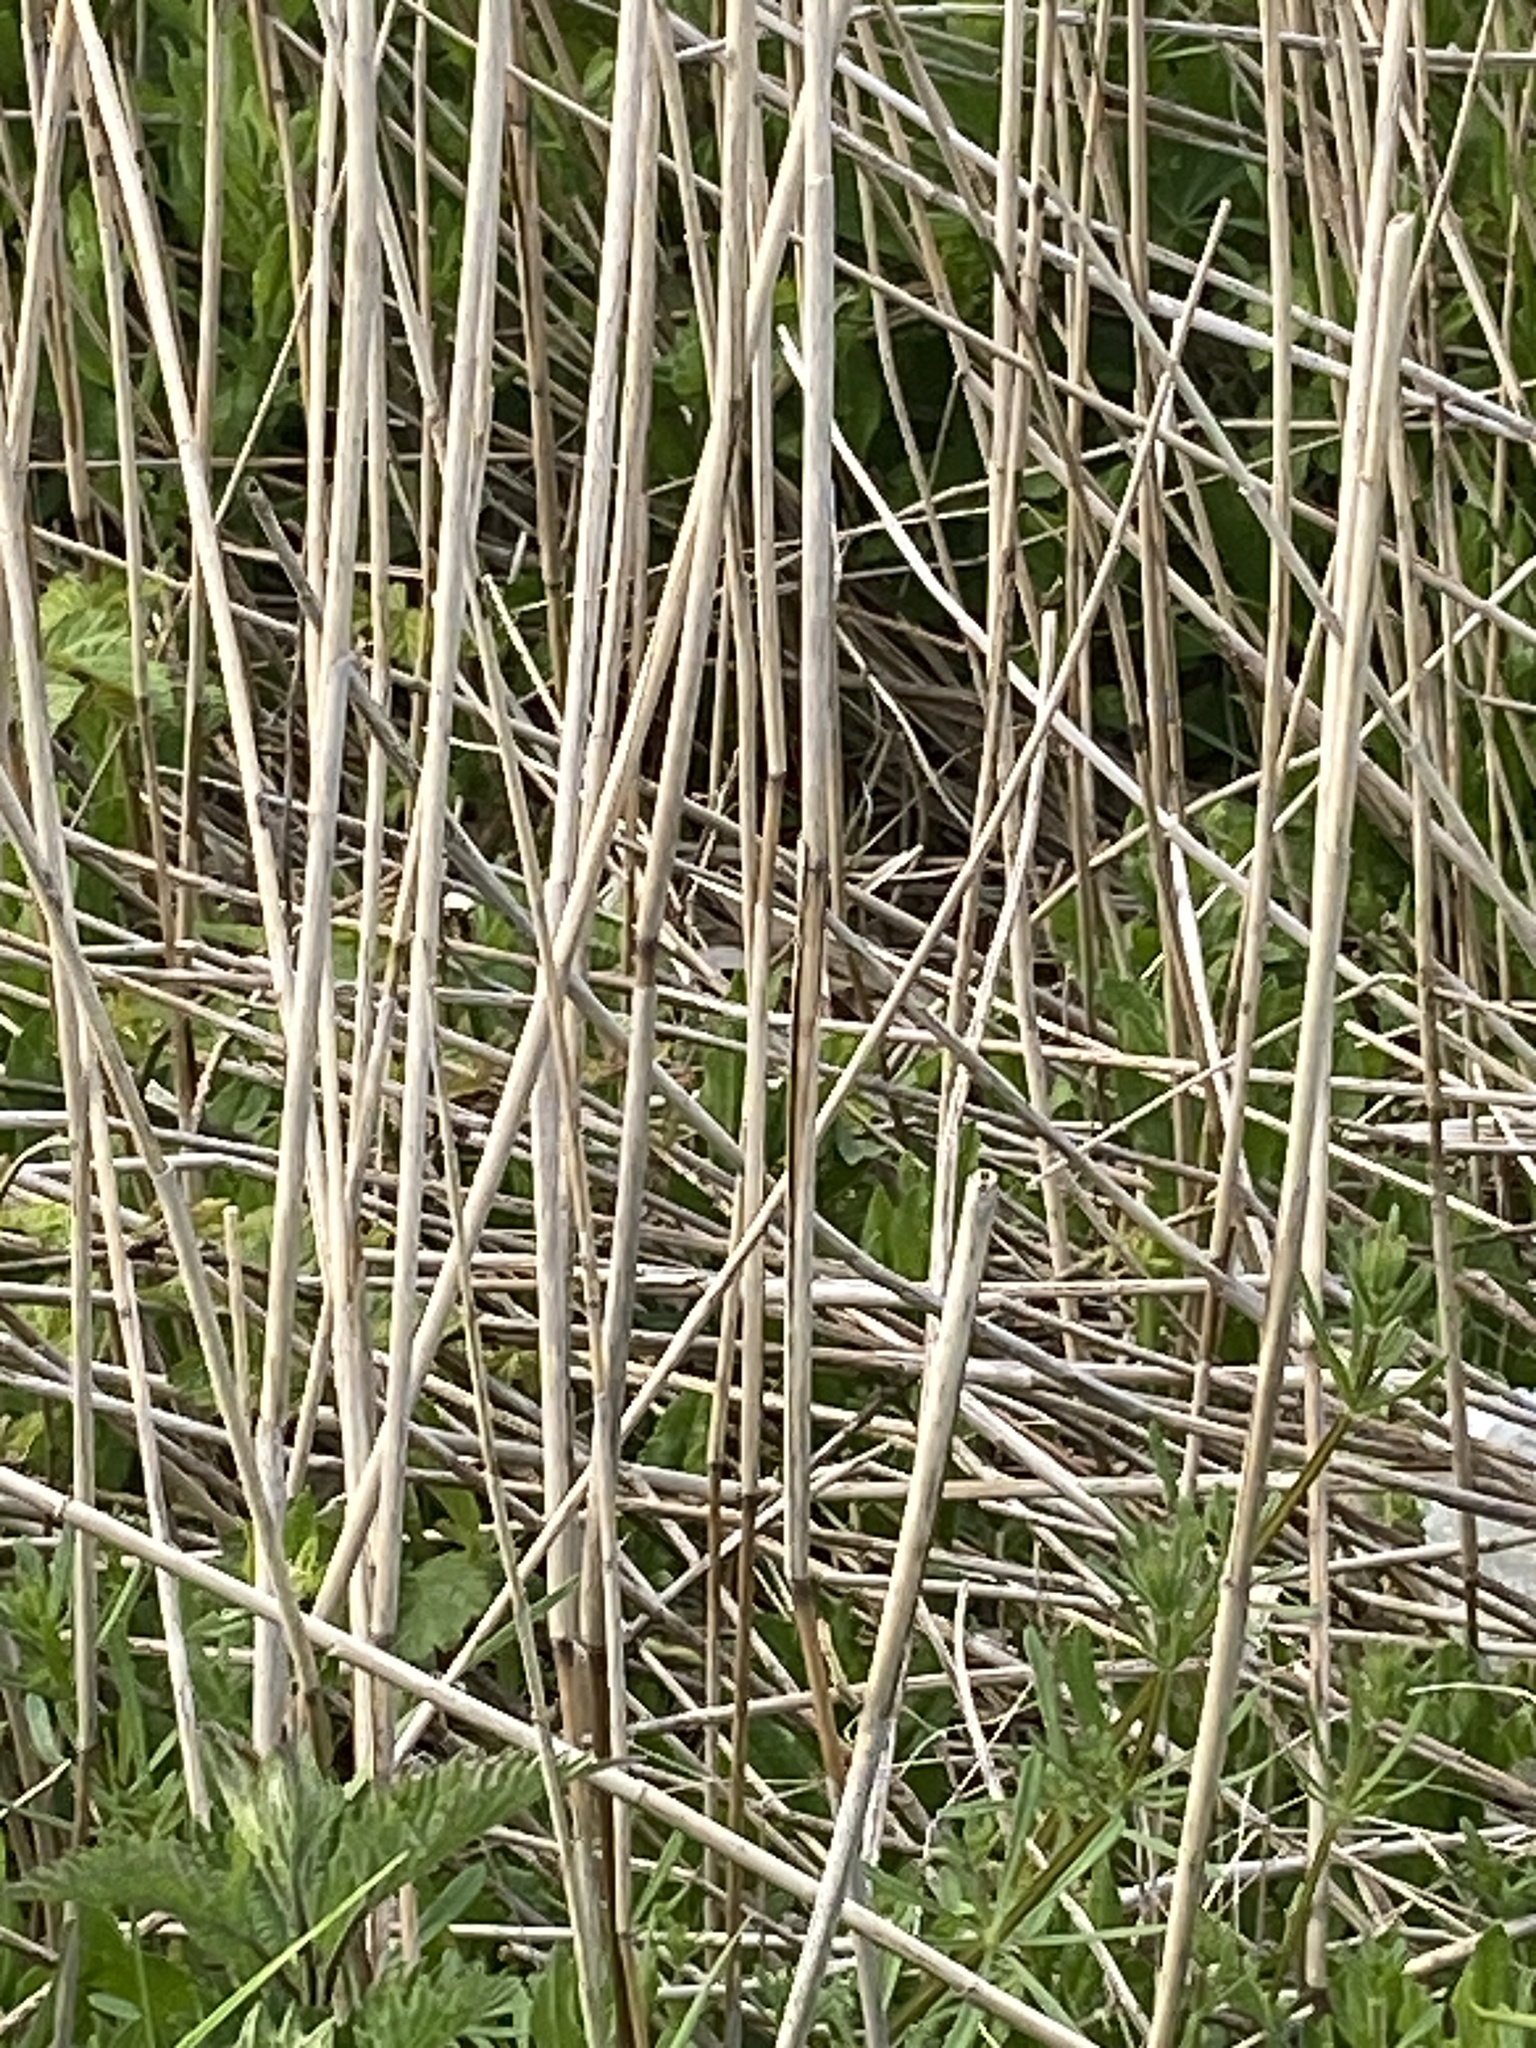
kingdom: Plantae
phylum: Tracheophyta
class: Liliopsida
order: Poales
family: Poaceae
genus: Phragmites
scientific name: Phragmites australis
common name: Common reed
